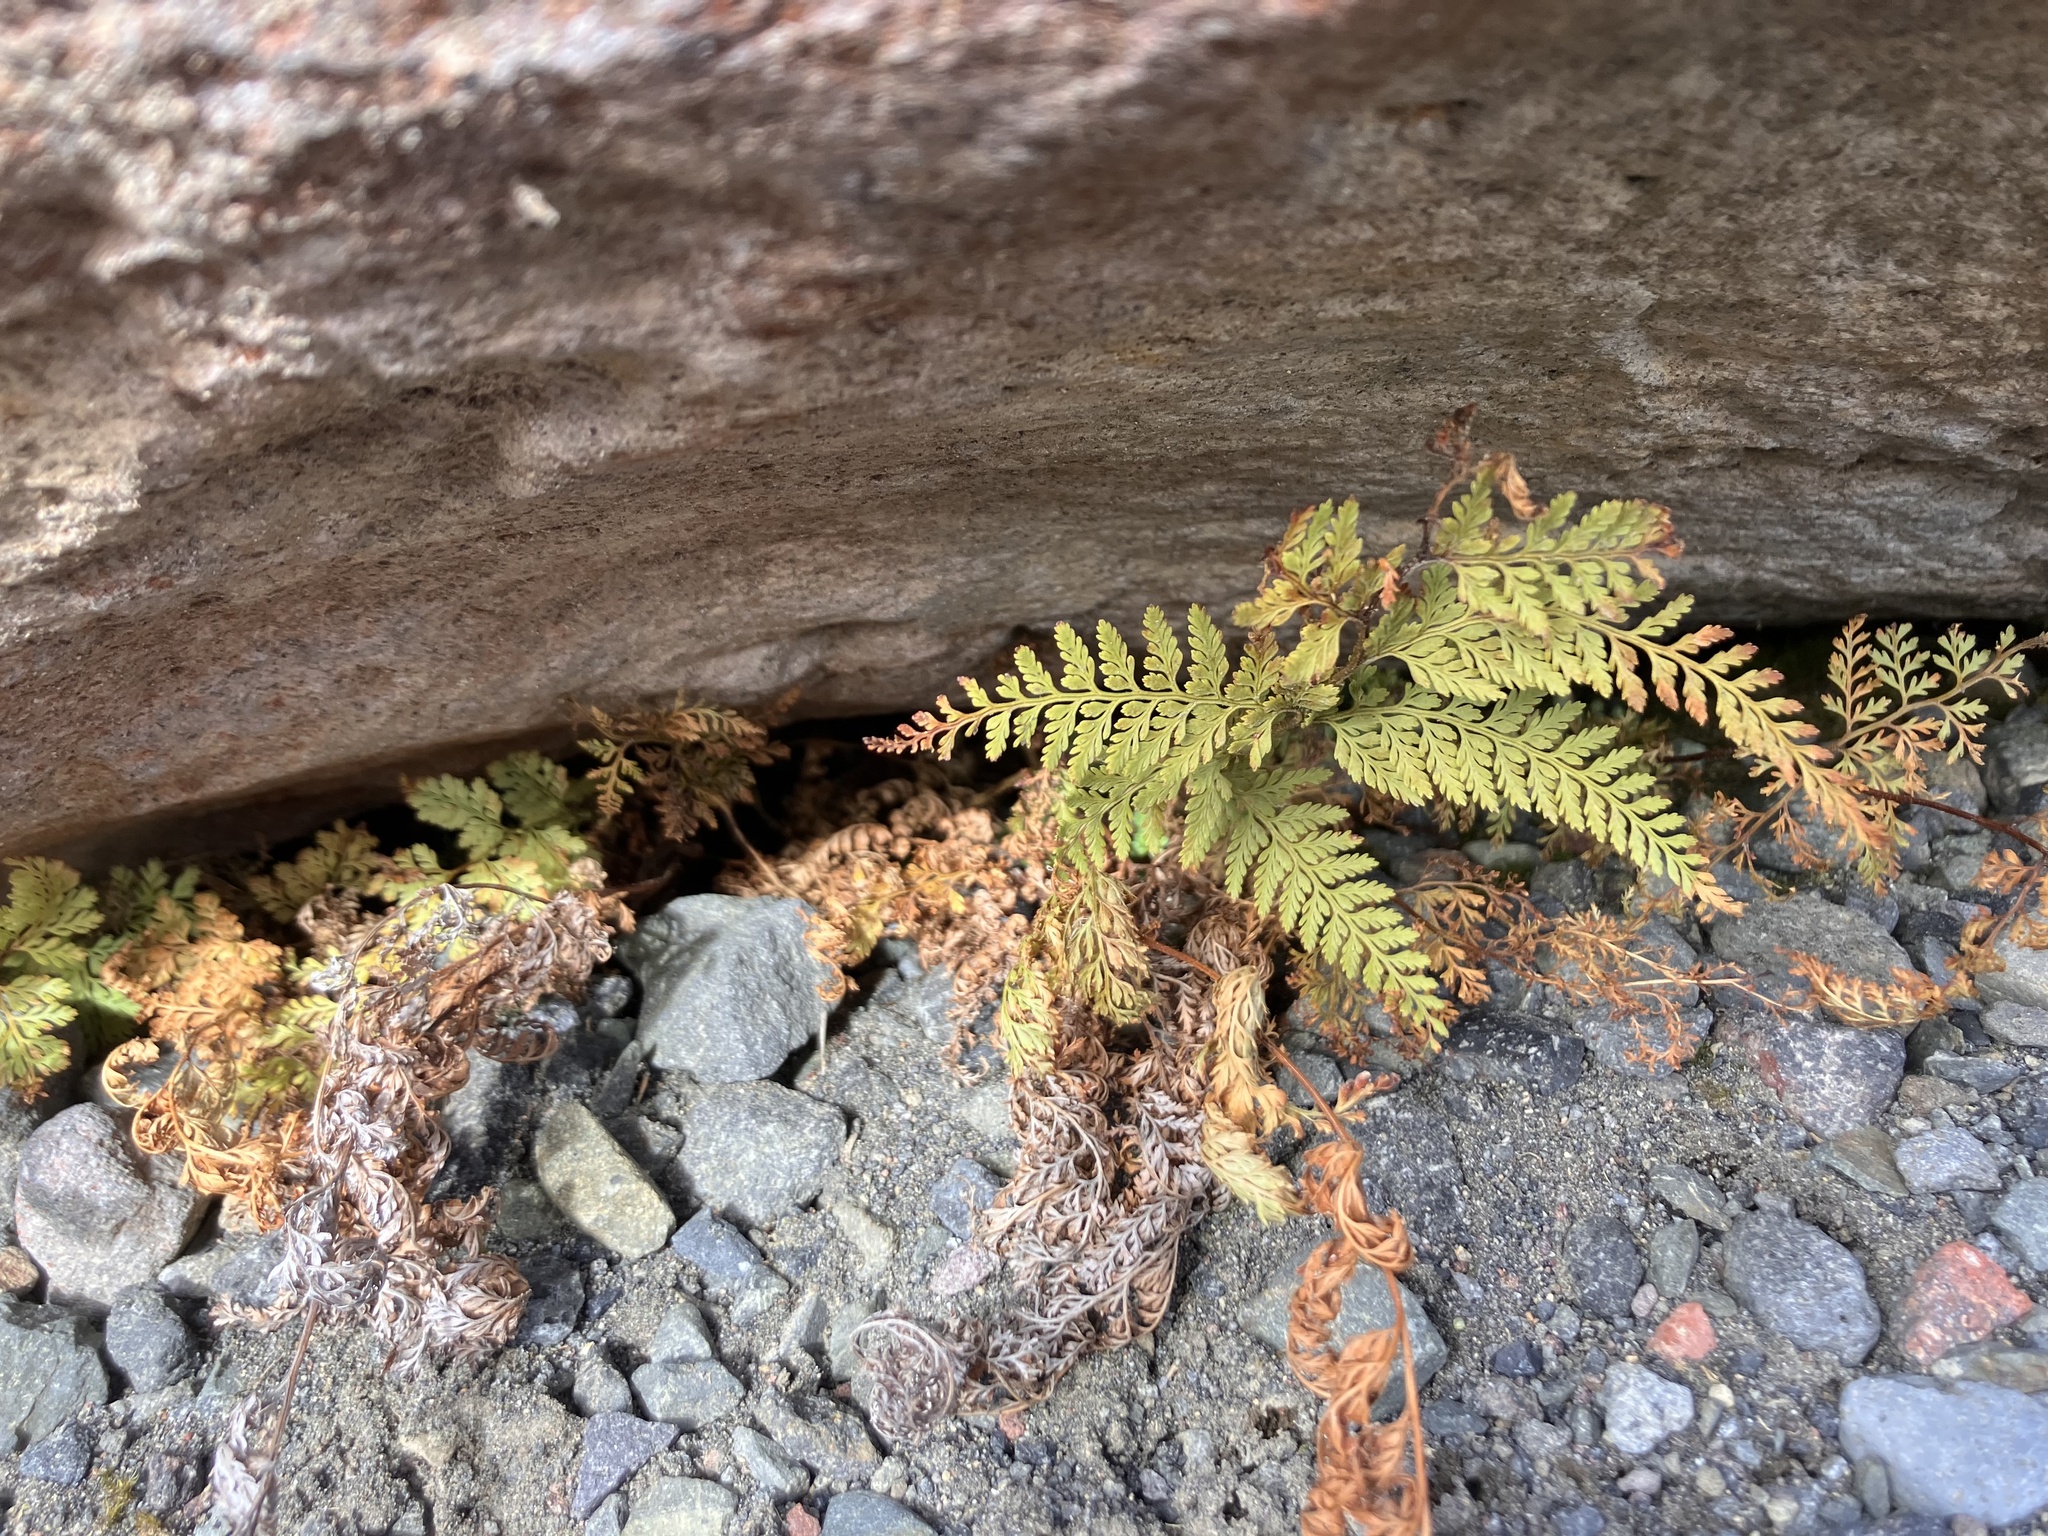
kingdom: Plantae
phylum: Tracheophyta
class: Polypodiopsida
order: Polypodiales
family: Dennstaedtiaceae
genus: Paesia
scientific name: Paesia scaberula
